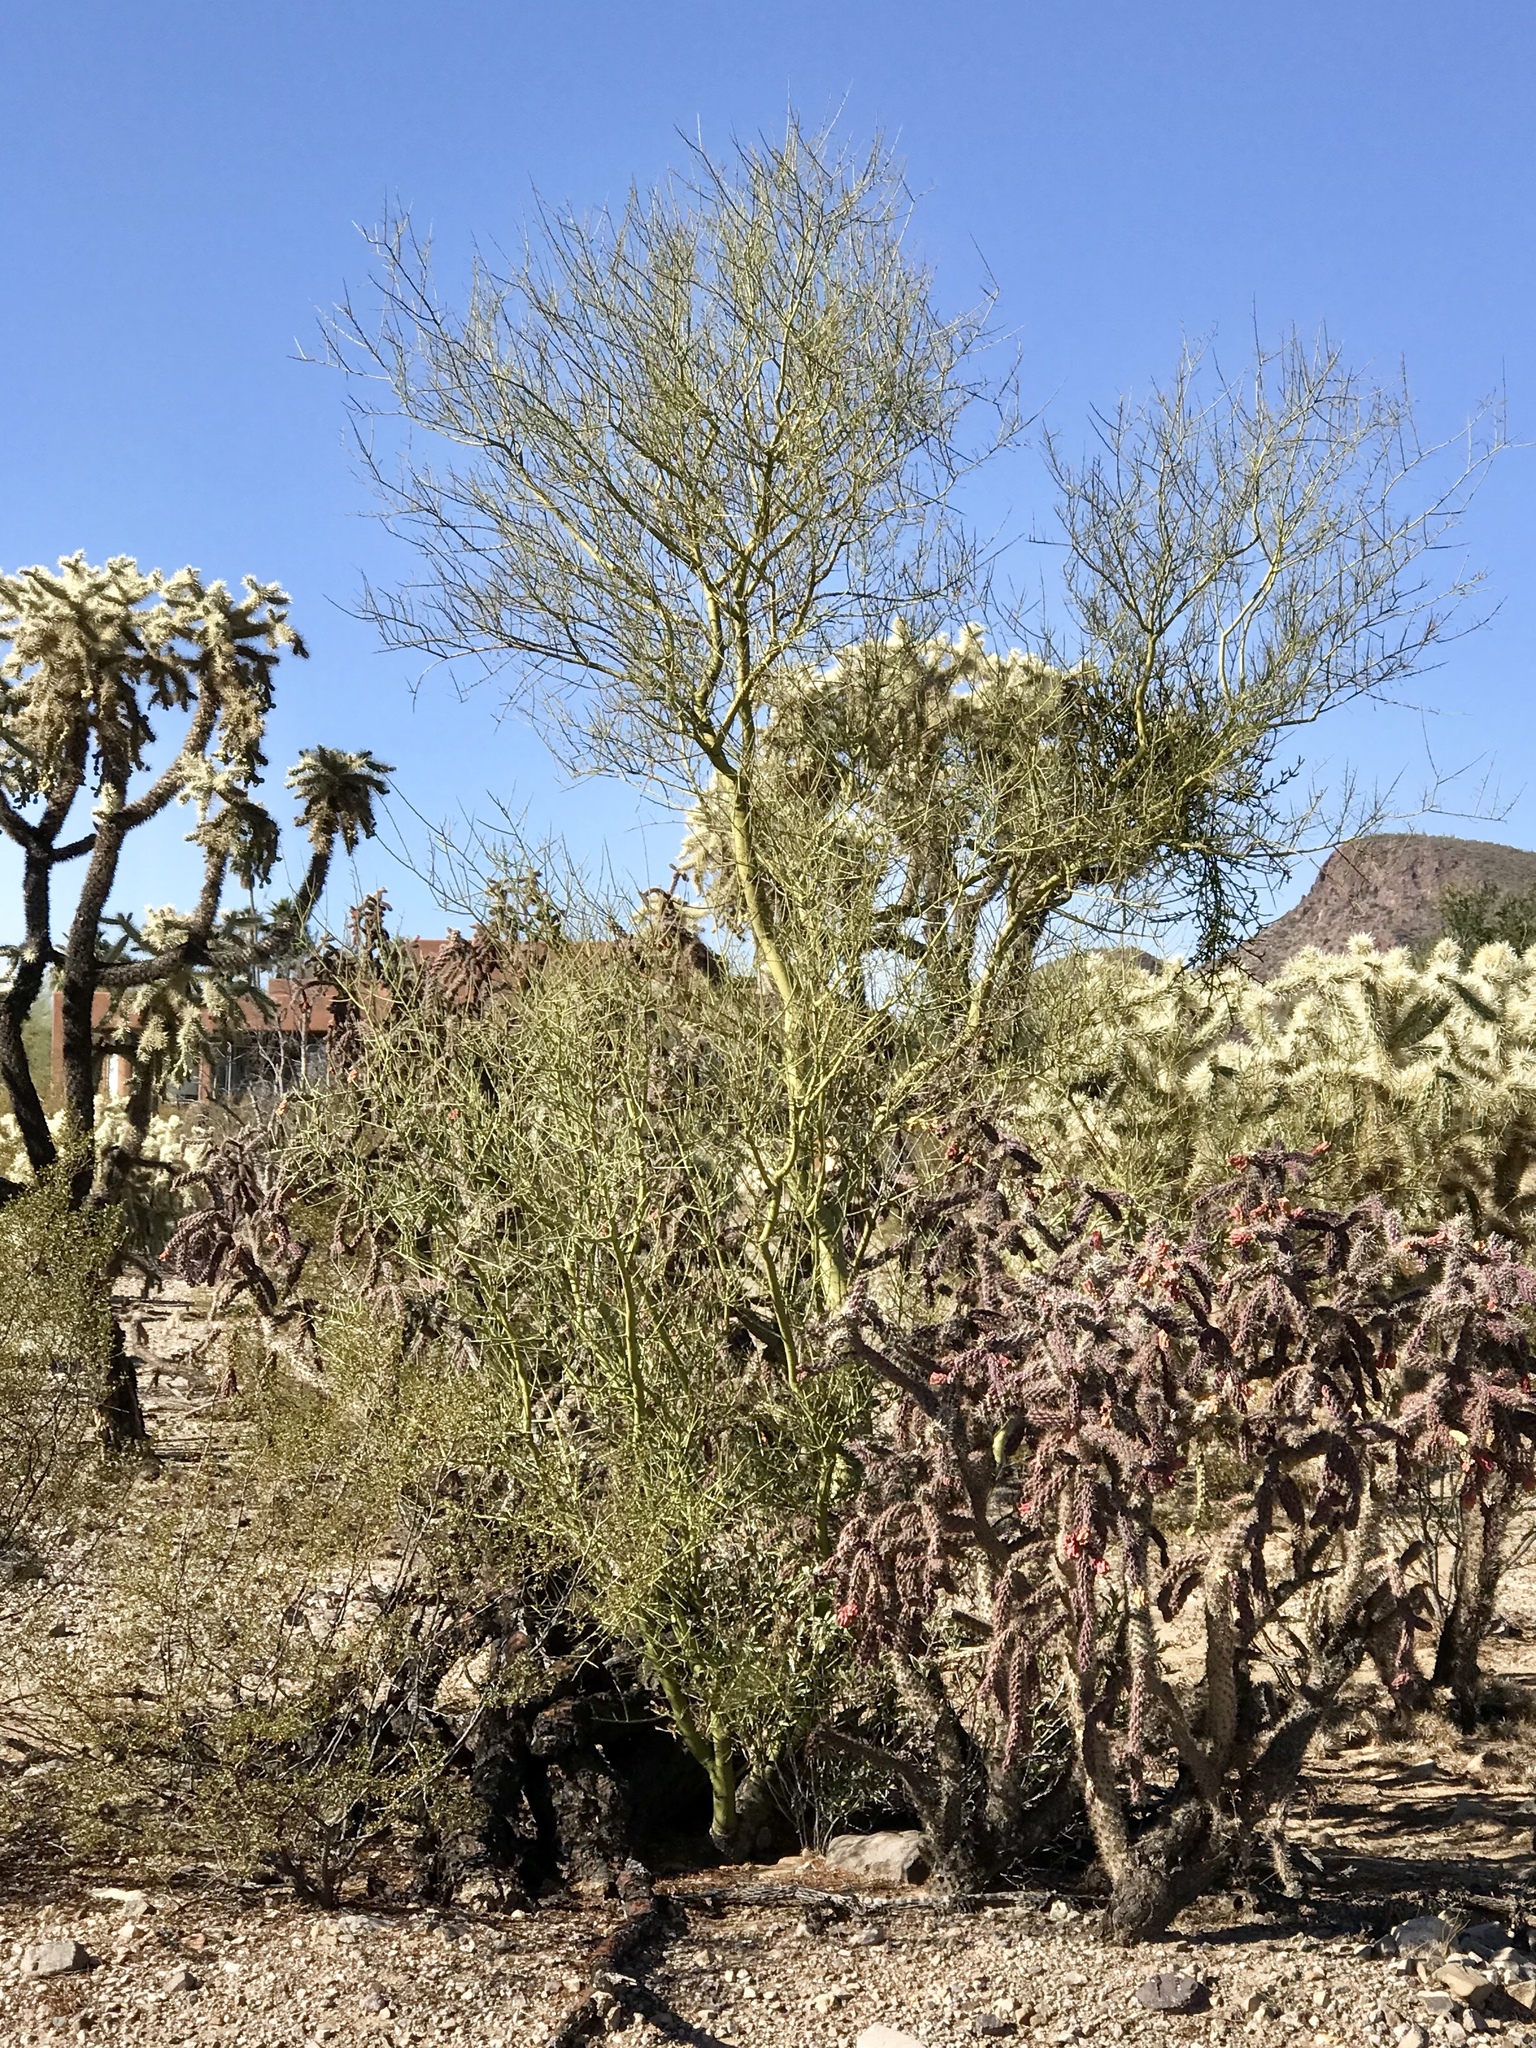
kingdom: Plantae
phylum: Tracheophyta
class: Magnoliopsida
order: Fabales
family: Fabaceae
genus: Parkinsonia
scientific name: Parkinsonia microphylla
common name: Yellow paloverde
